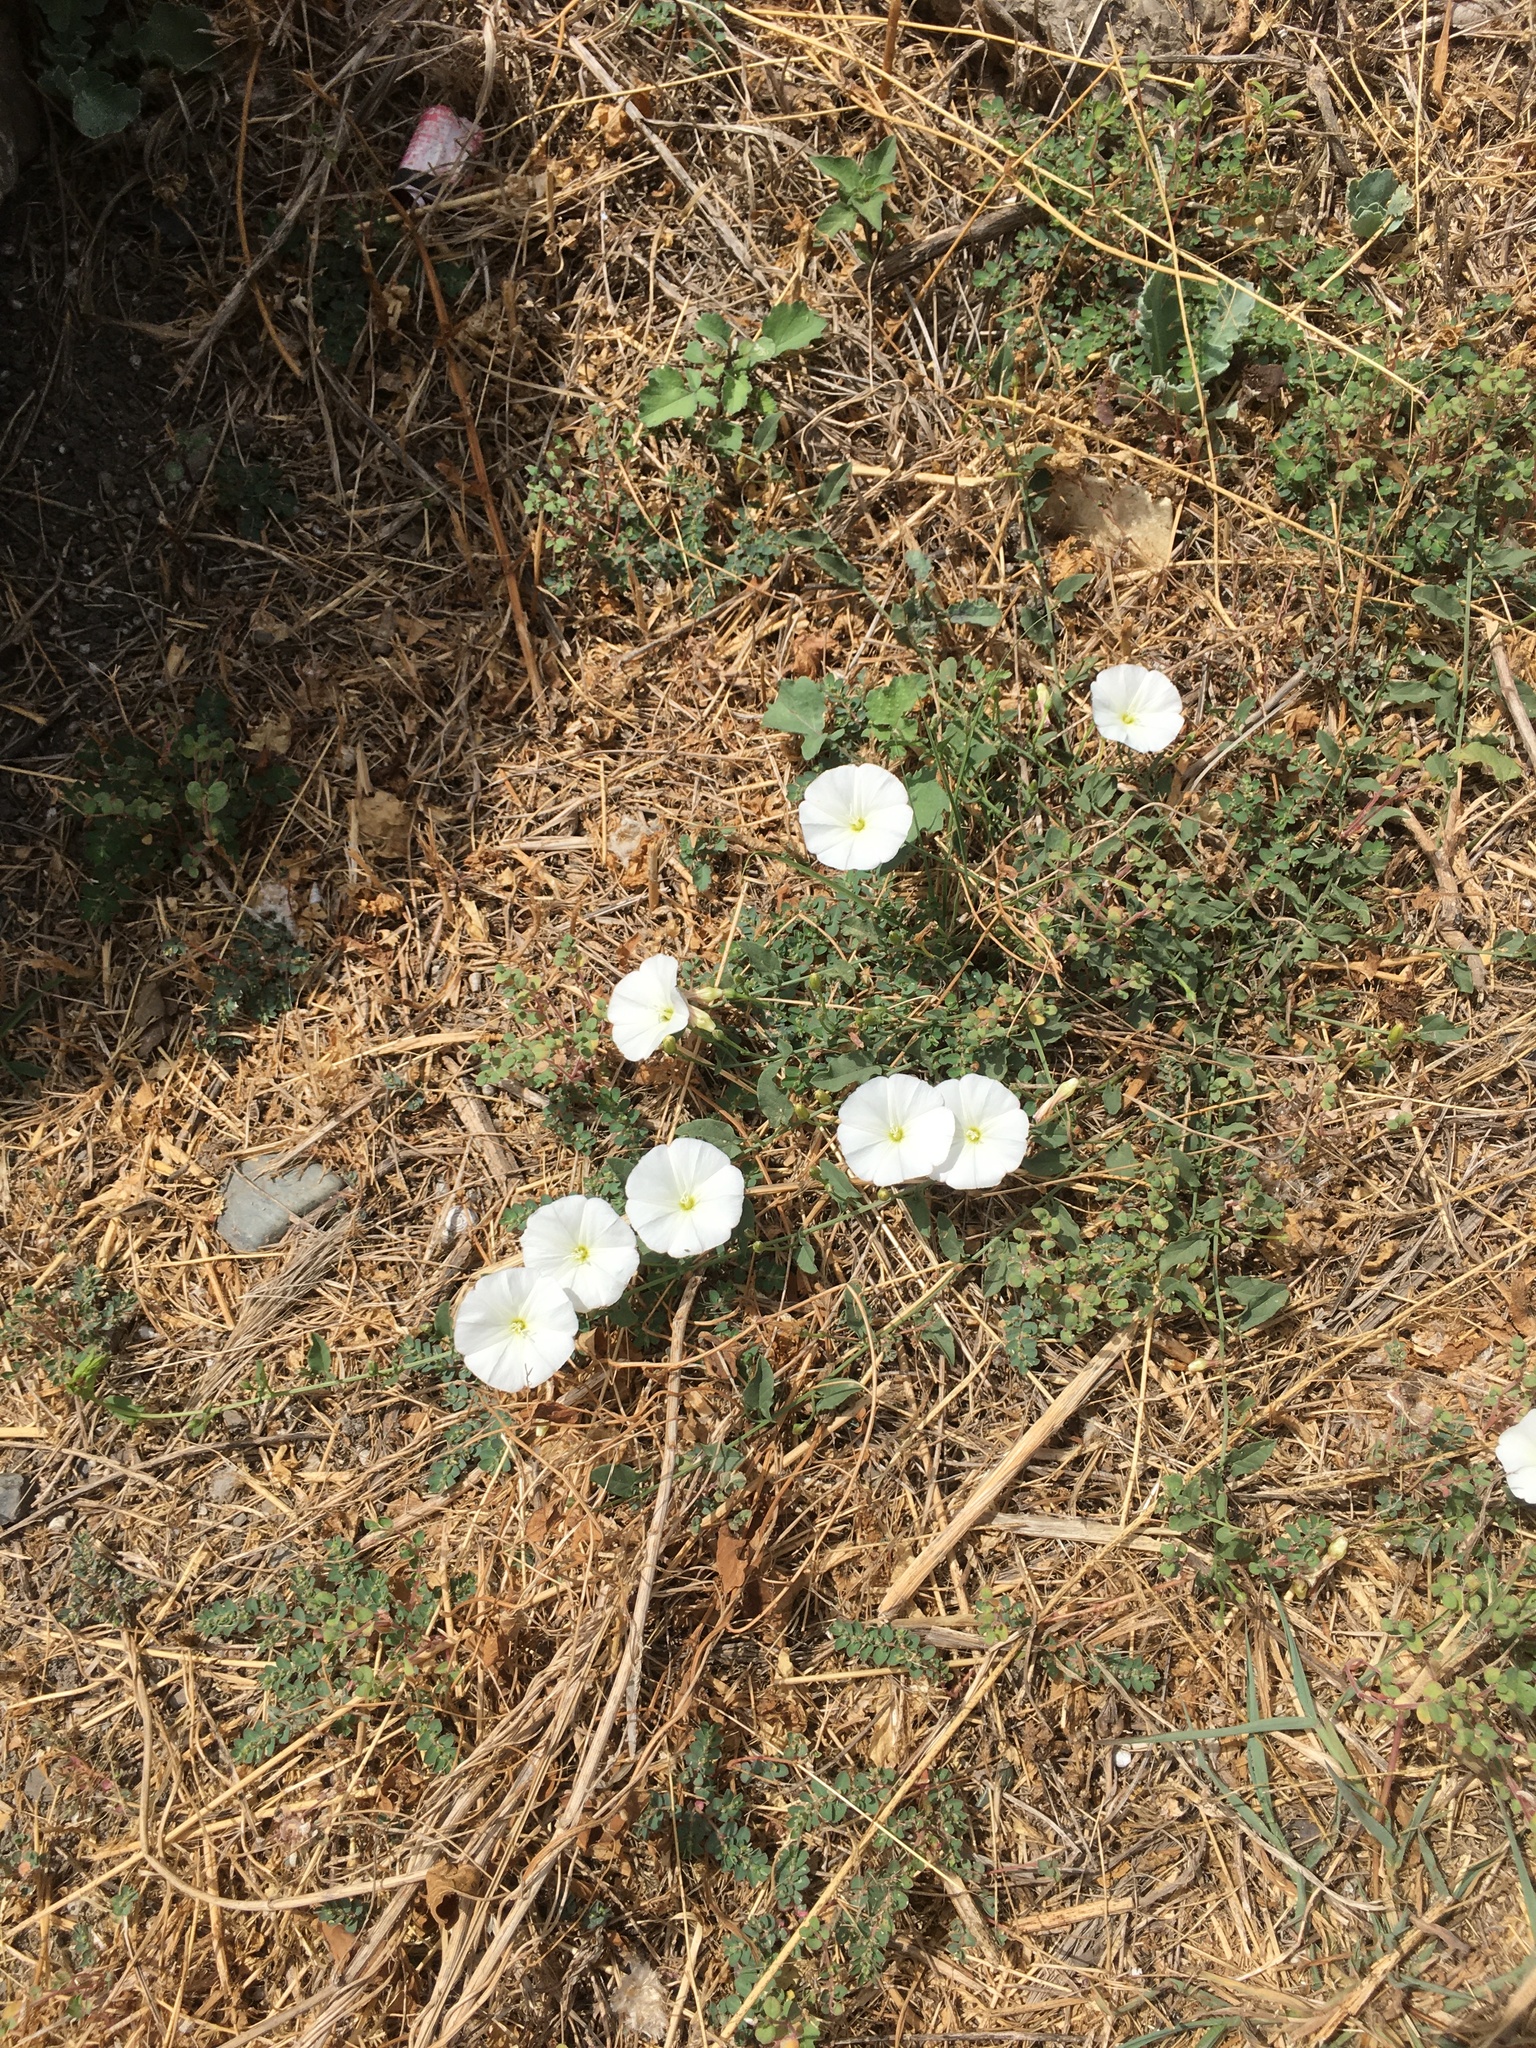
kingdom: Plantae
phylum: Tracheophyta
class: Magnoliopsida
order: Solanales
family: Convolvulaceae
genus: Convolvulus
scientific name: Convolvulus arvensis
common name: Field bindweed
